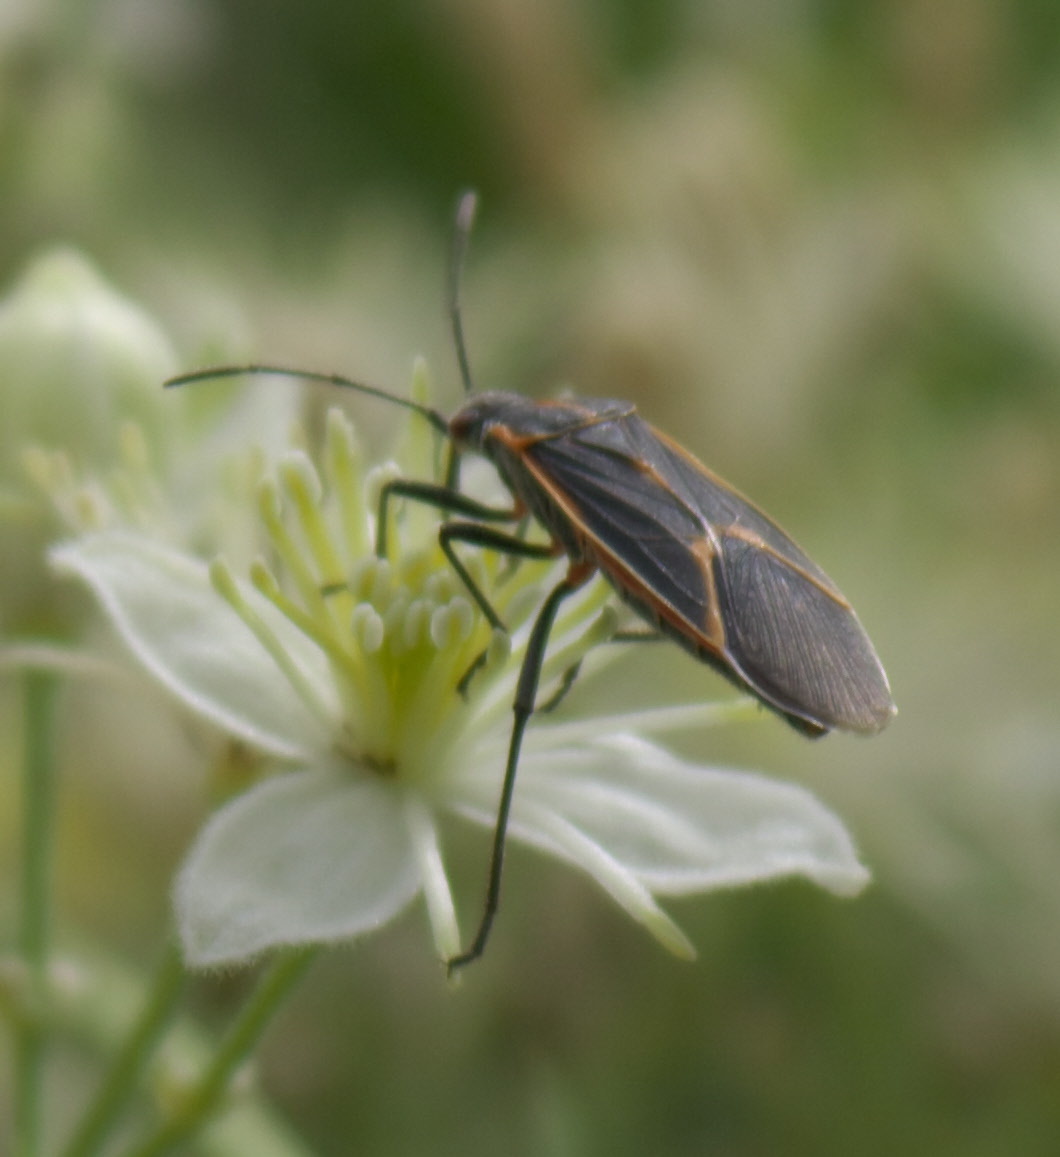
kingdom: Animalia
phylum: Arthropoda
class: Insecta
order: Hemiptera
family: Rhopalidae
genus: Boisea
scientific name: Boisea trivittata
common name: Boxelder bug
